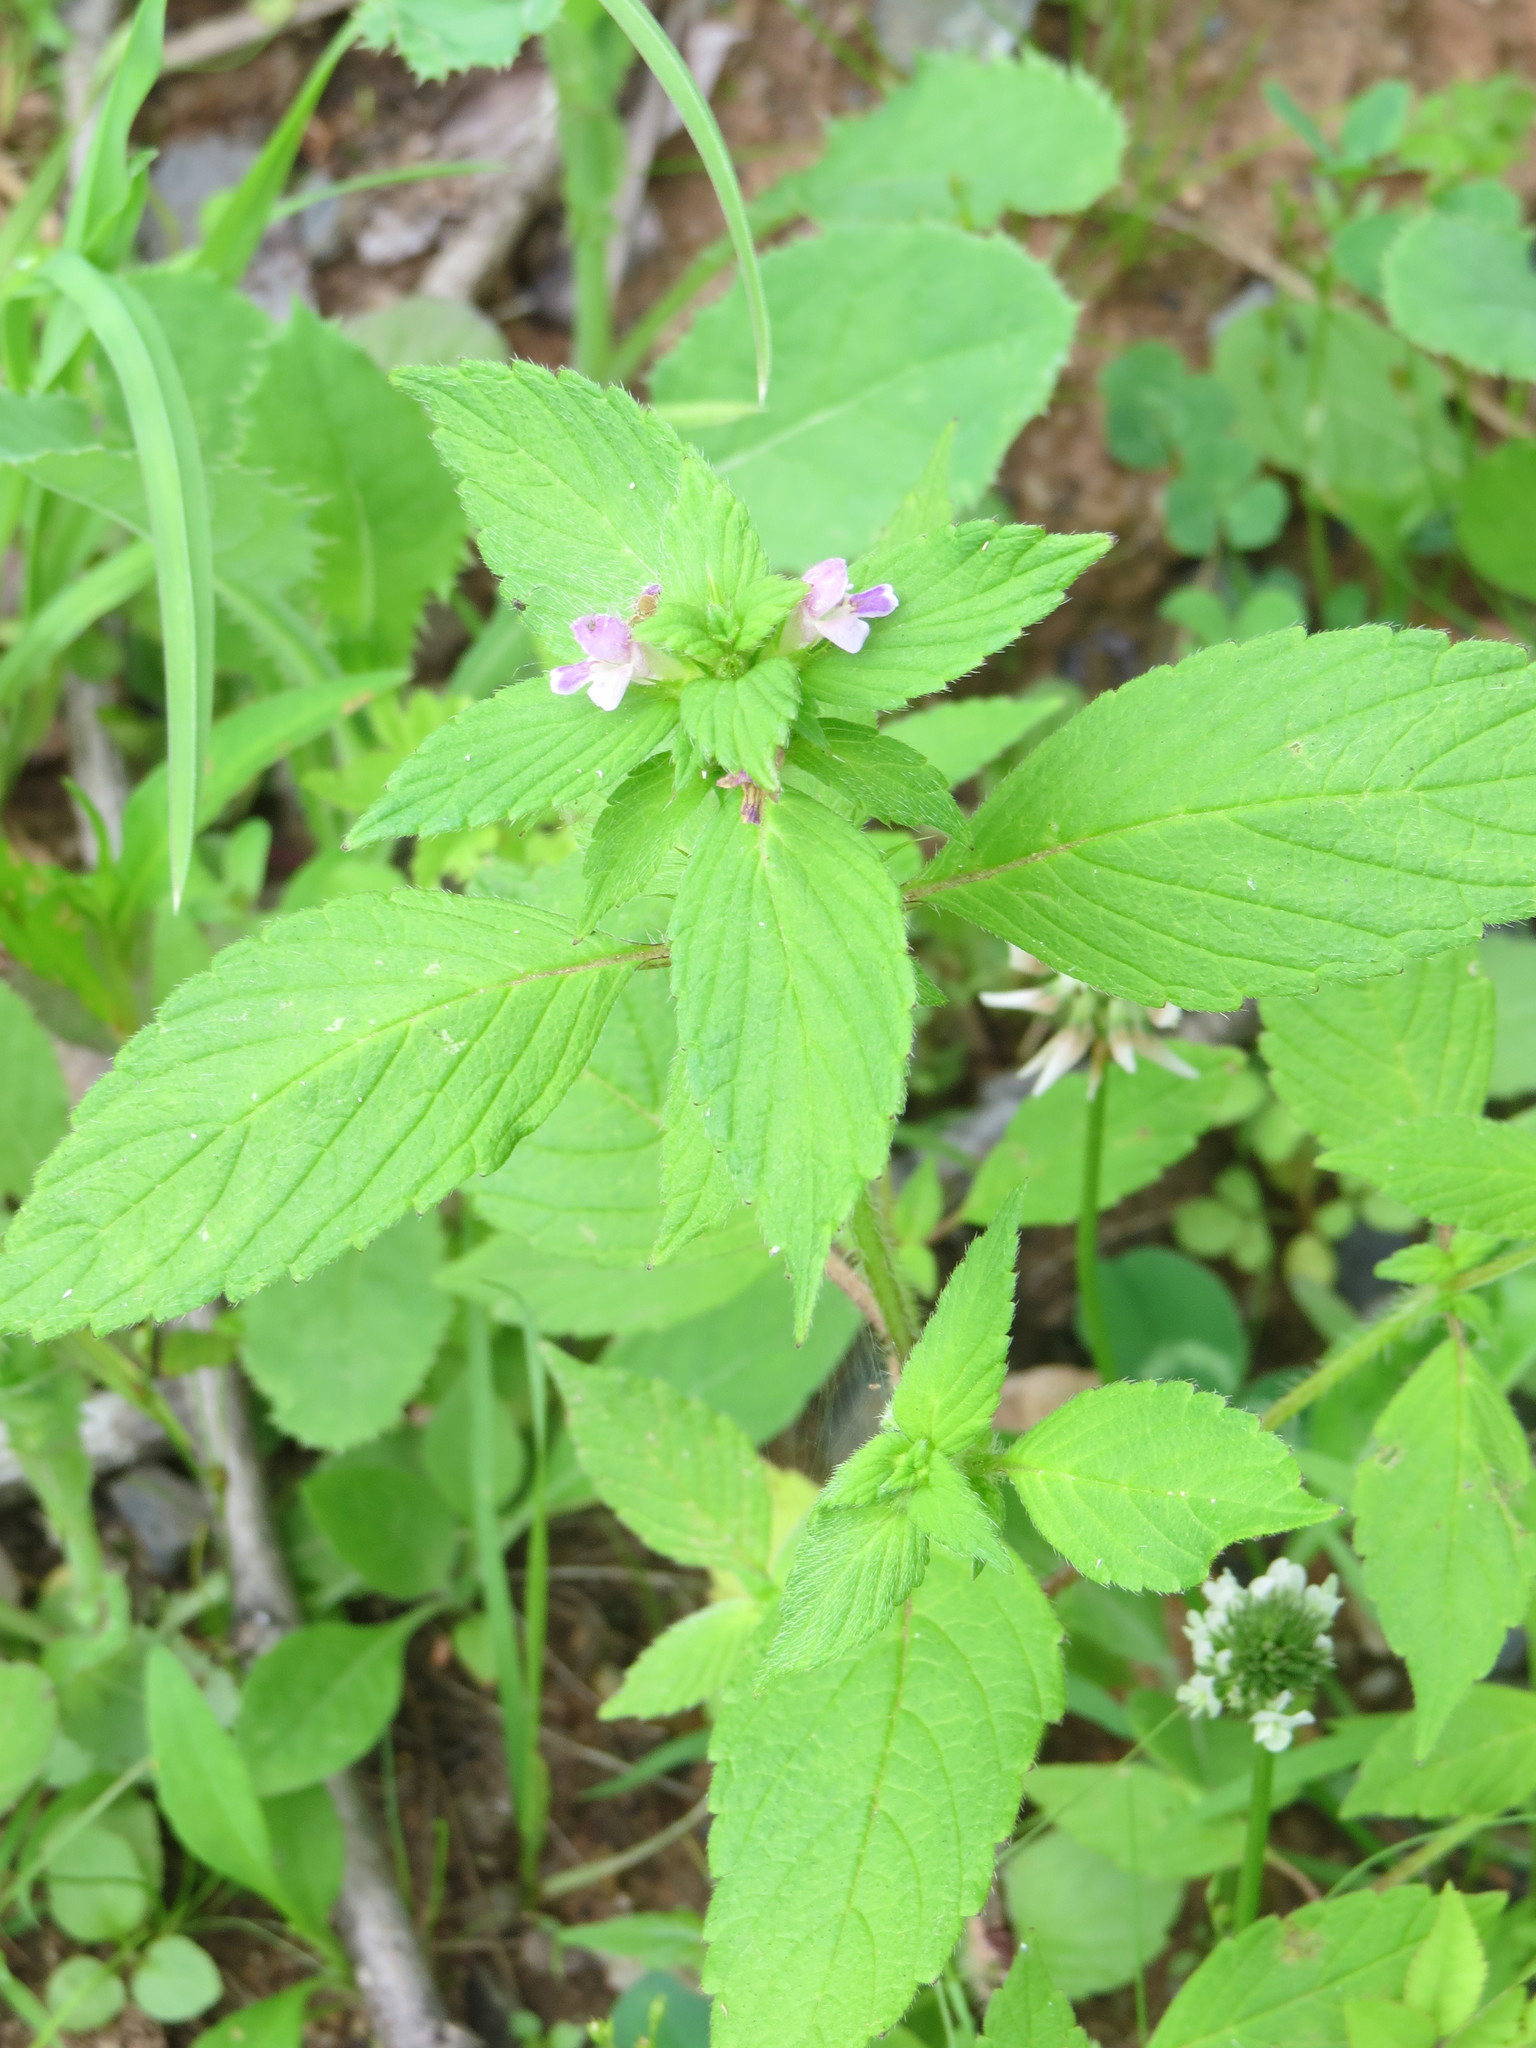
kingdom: Plantae
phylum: Tracheophyta
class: Magnoliopsida
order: Lamiales
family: Lamiaceae
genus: Galeopsis
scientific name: Galeopsis bifida
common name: Bifid hemp-nettle
